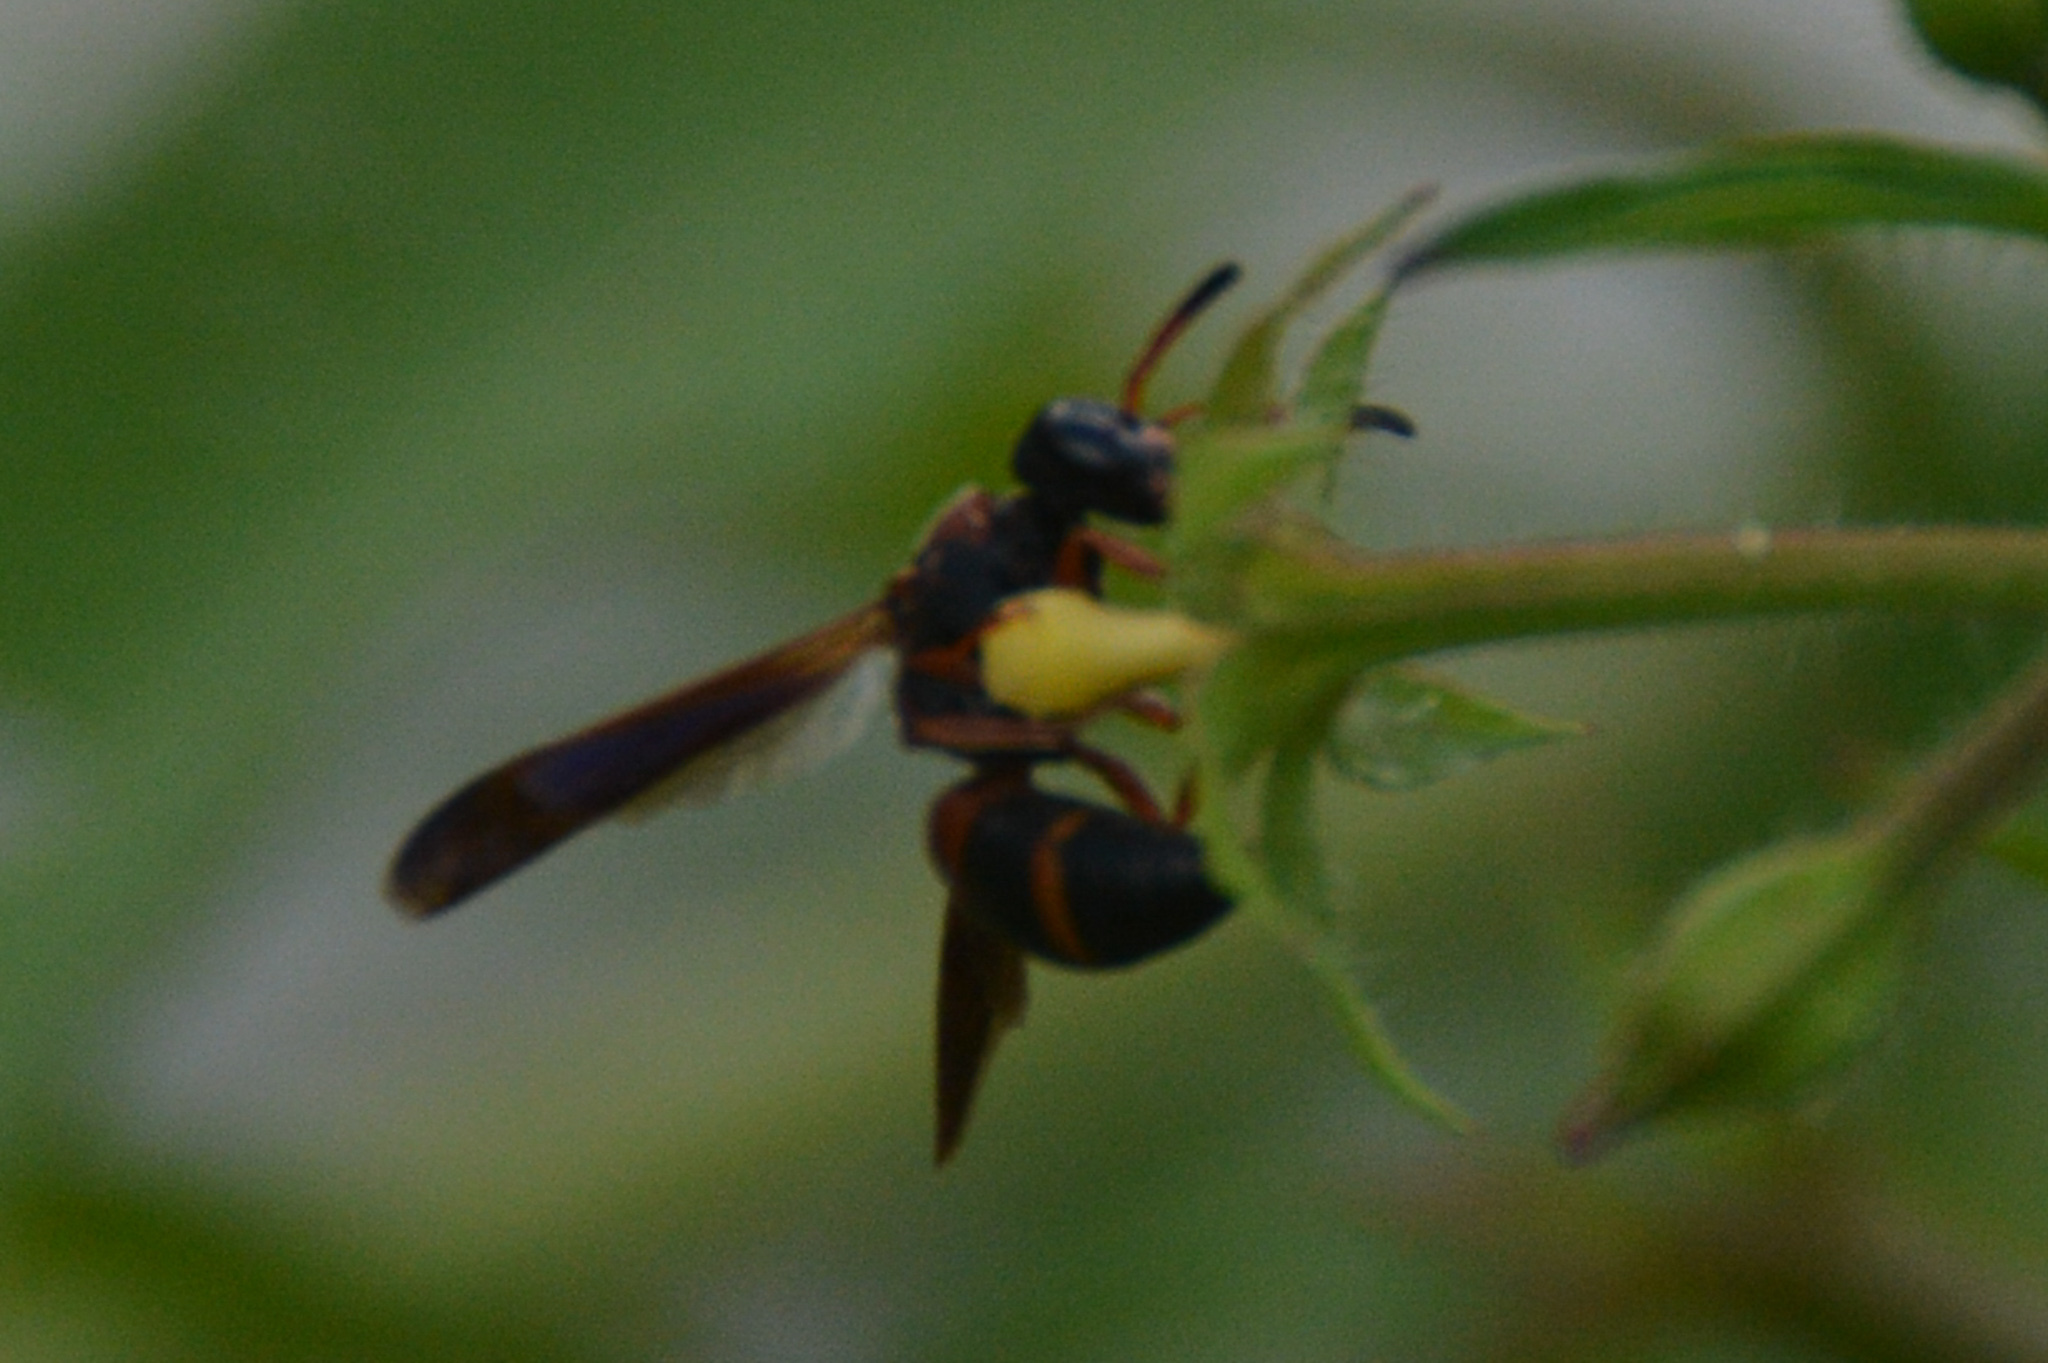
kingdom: Animalia
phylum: Arthropoda
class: Insecta
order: Hymenoptera
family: Eumenidae
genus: Pachodynerus
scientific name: Pachodynerus erynnis
